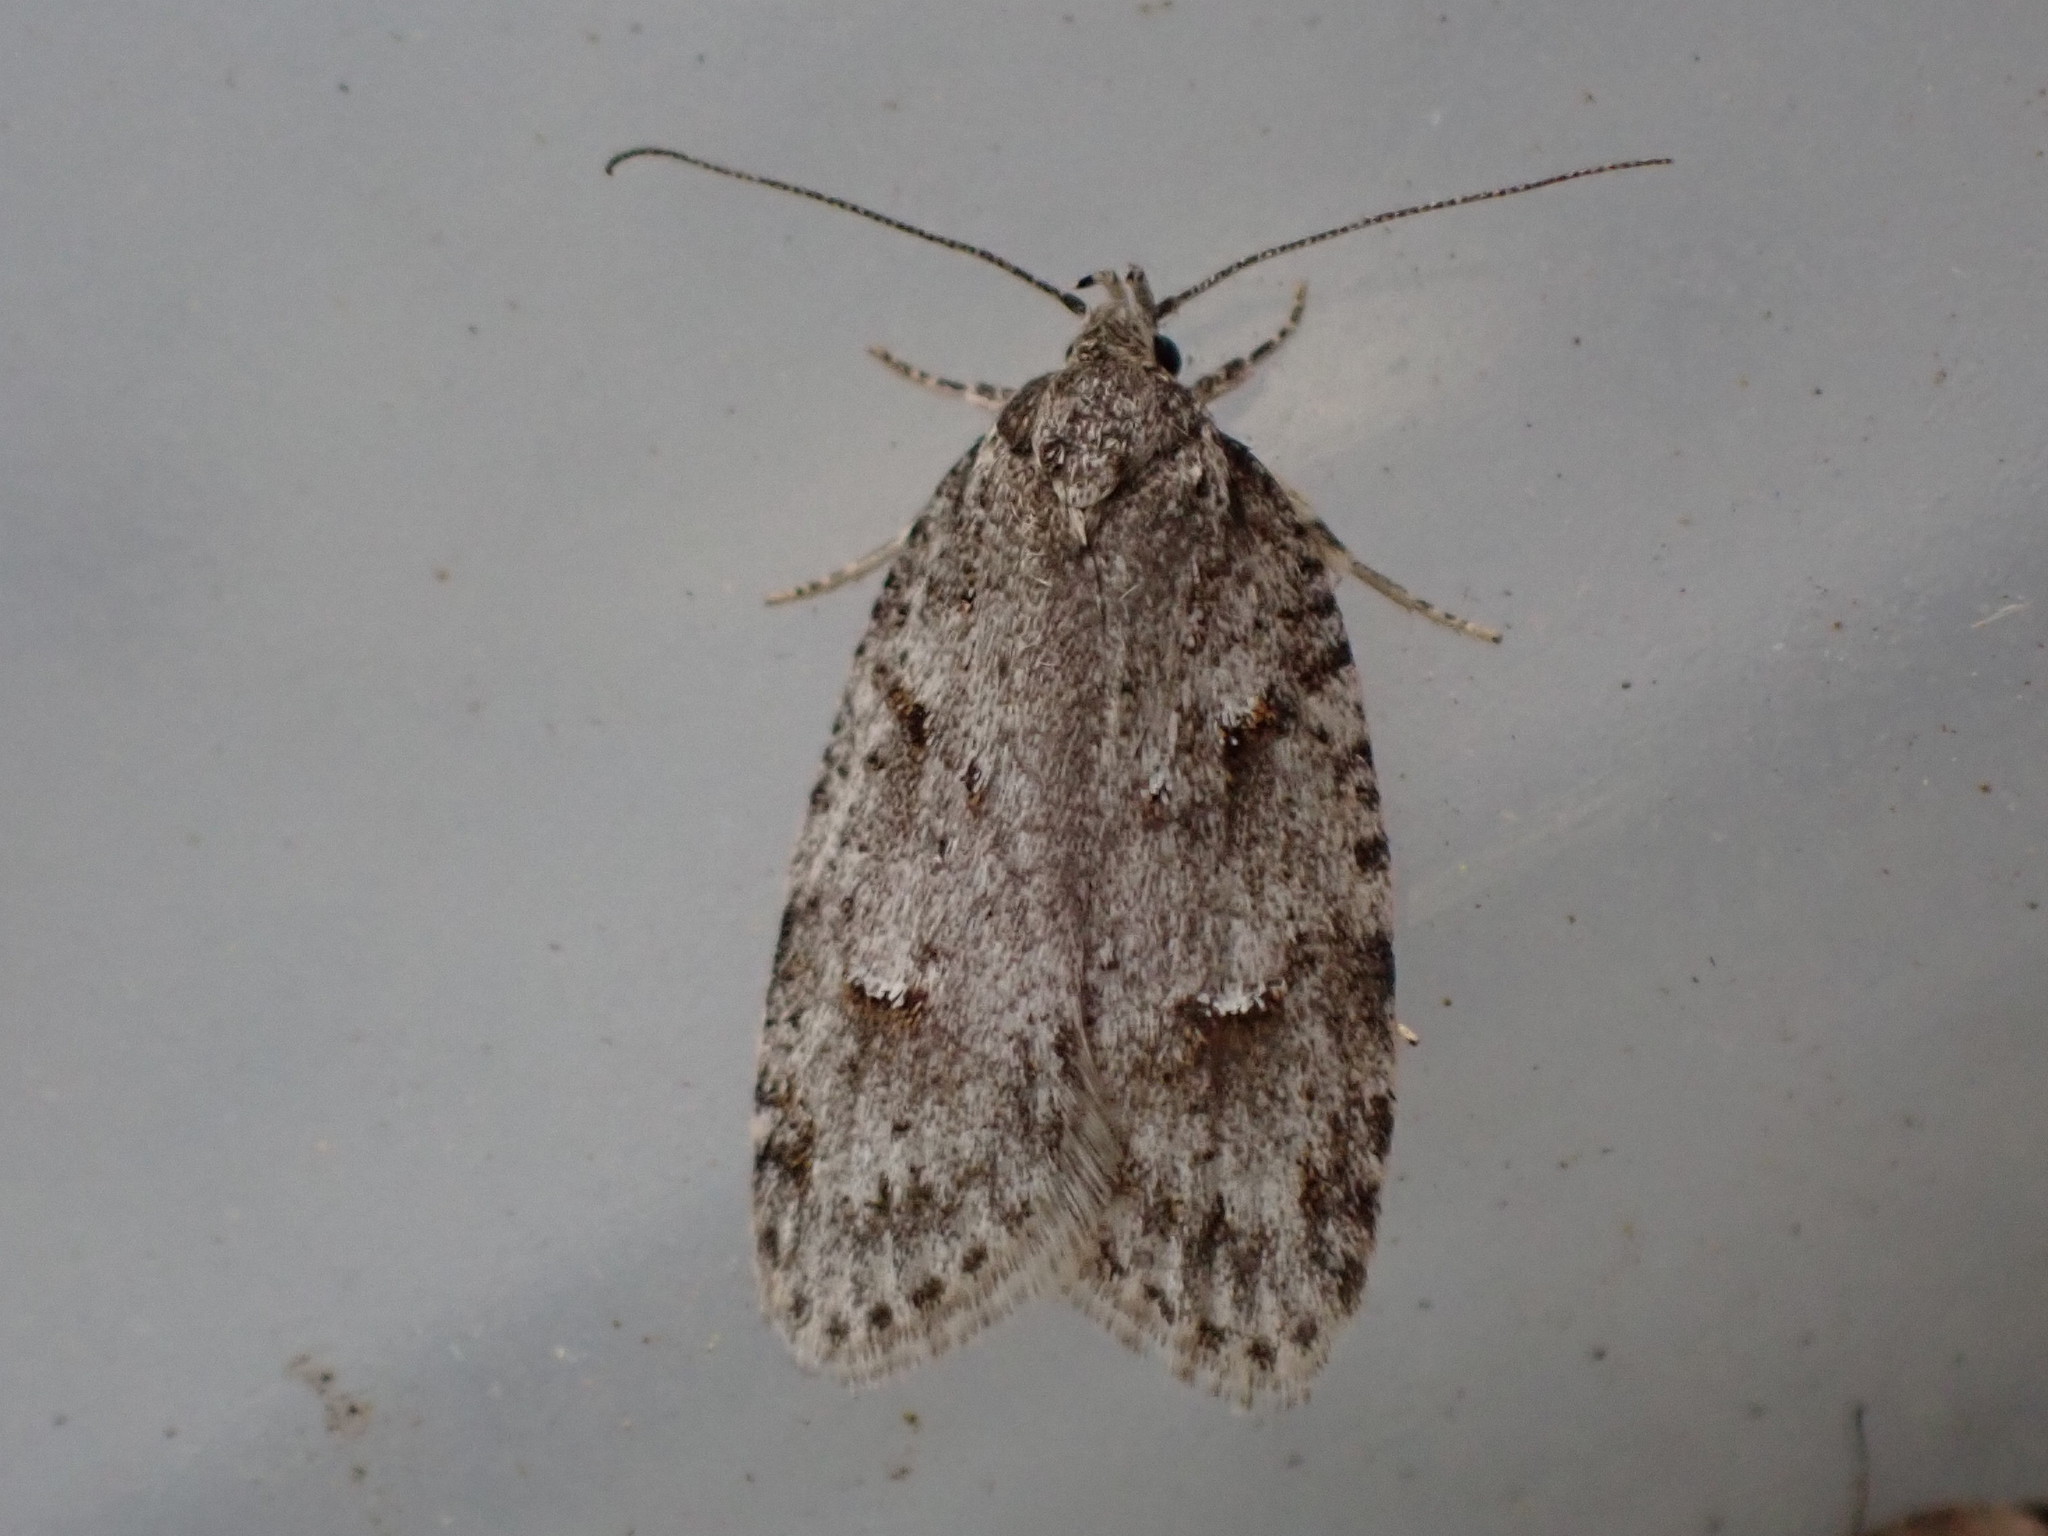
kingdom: Animalia
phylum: Arthropoda
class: Insecta
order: Lepidoptera
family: Depressariidae
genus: Bibarrambla
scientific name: Bibarrambla allenella
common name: Bog bibarrambla moth
